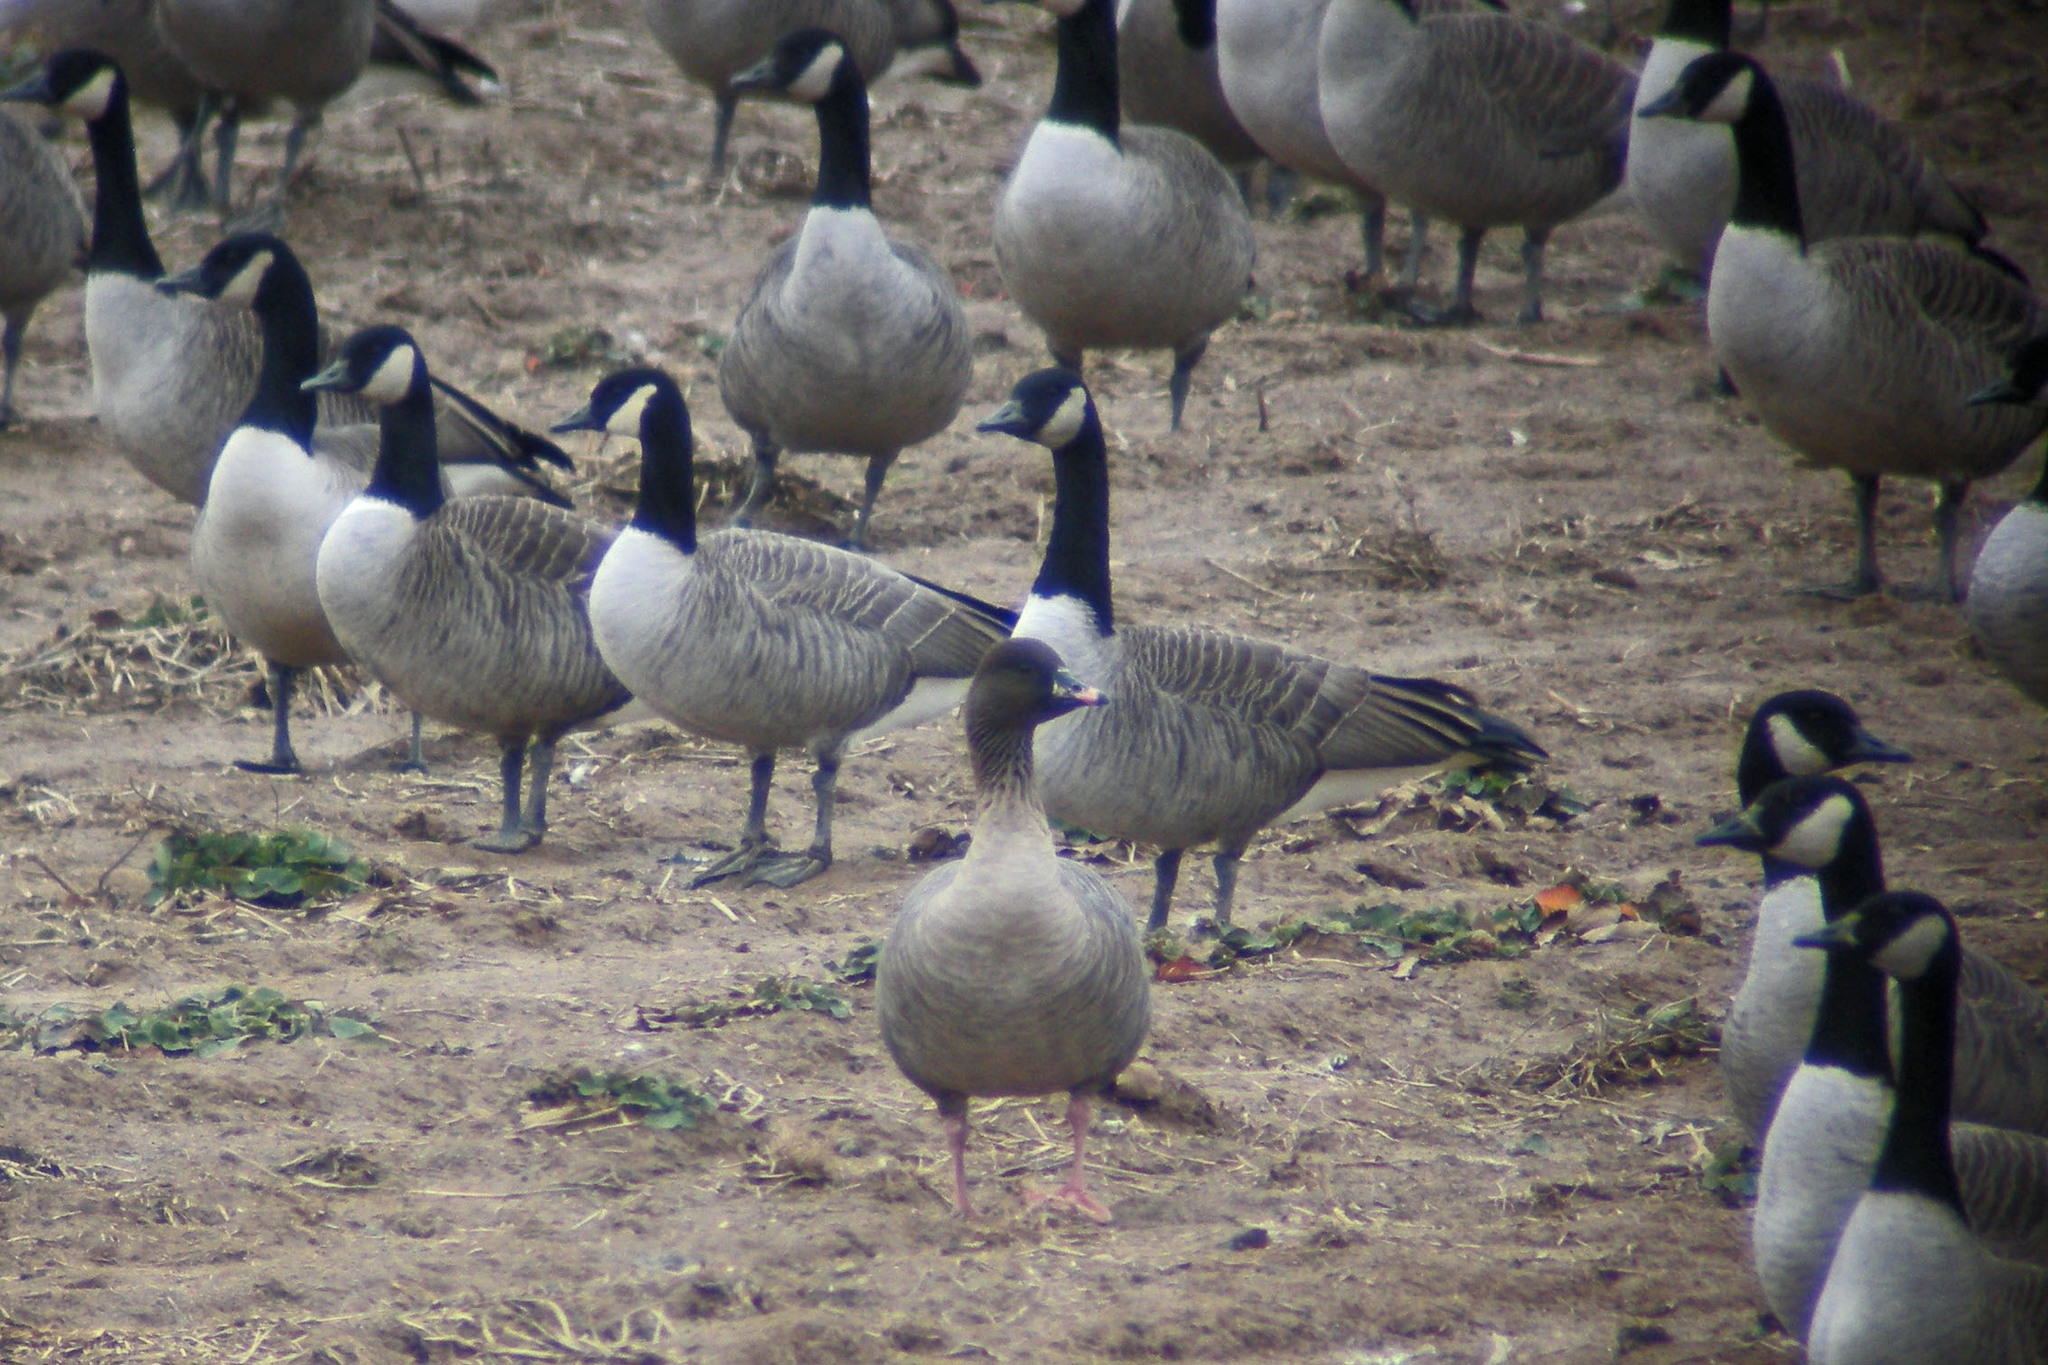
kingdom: Animalia
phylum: Chordata
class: Aves
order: Anseriformes
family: Anatidae
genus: Anser
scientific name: Anser brachyrhynchus
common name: Pink-footed goose
